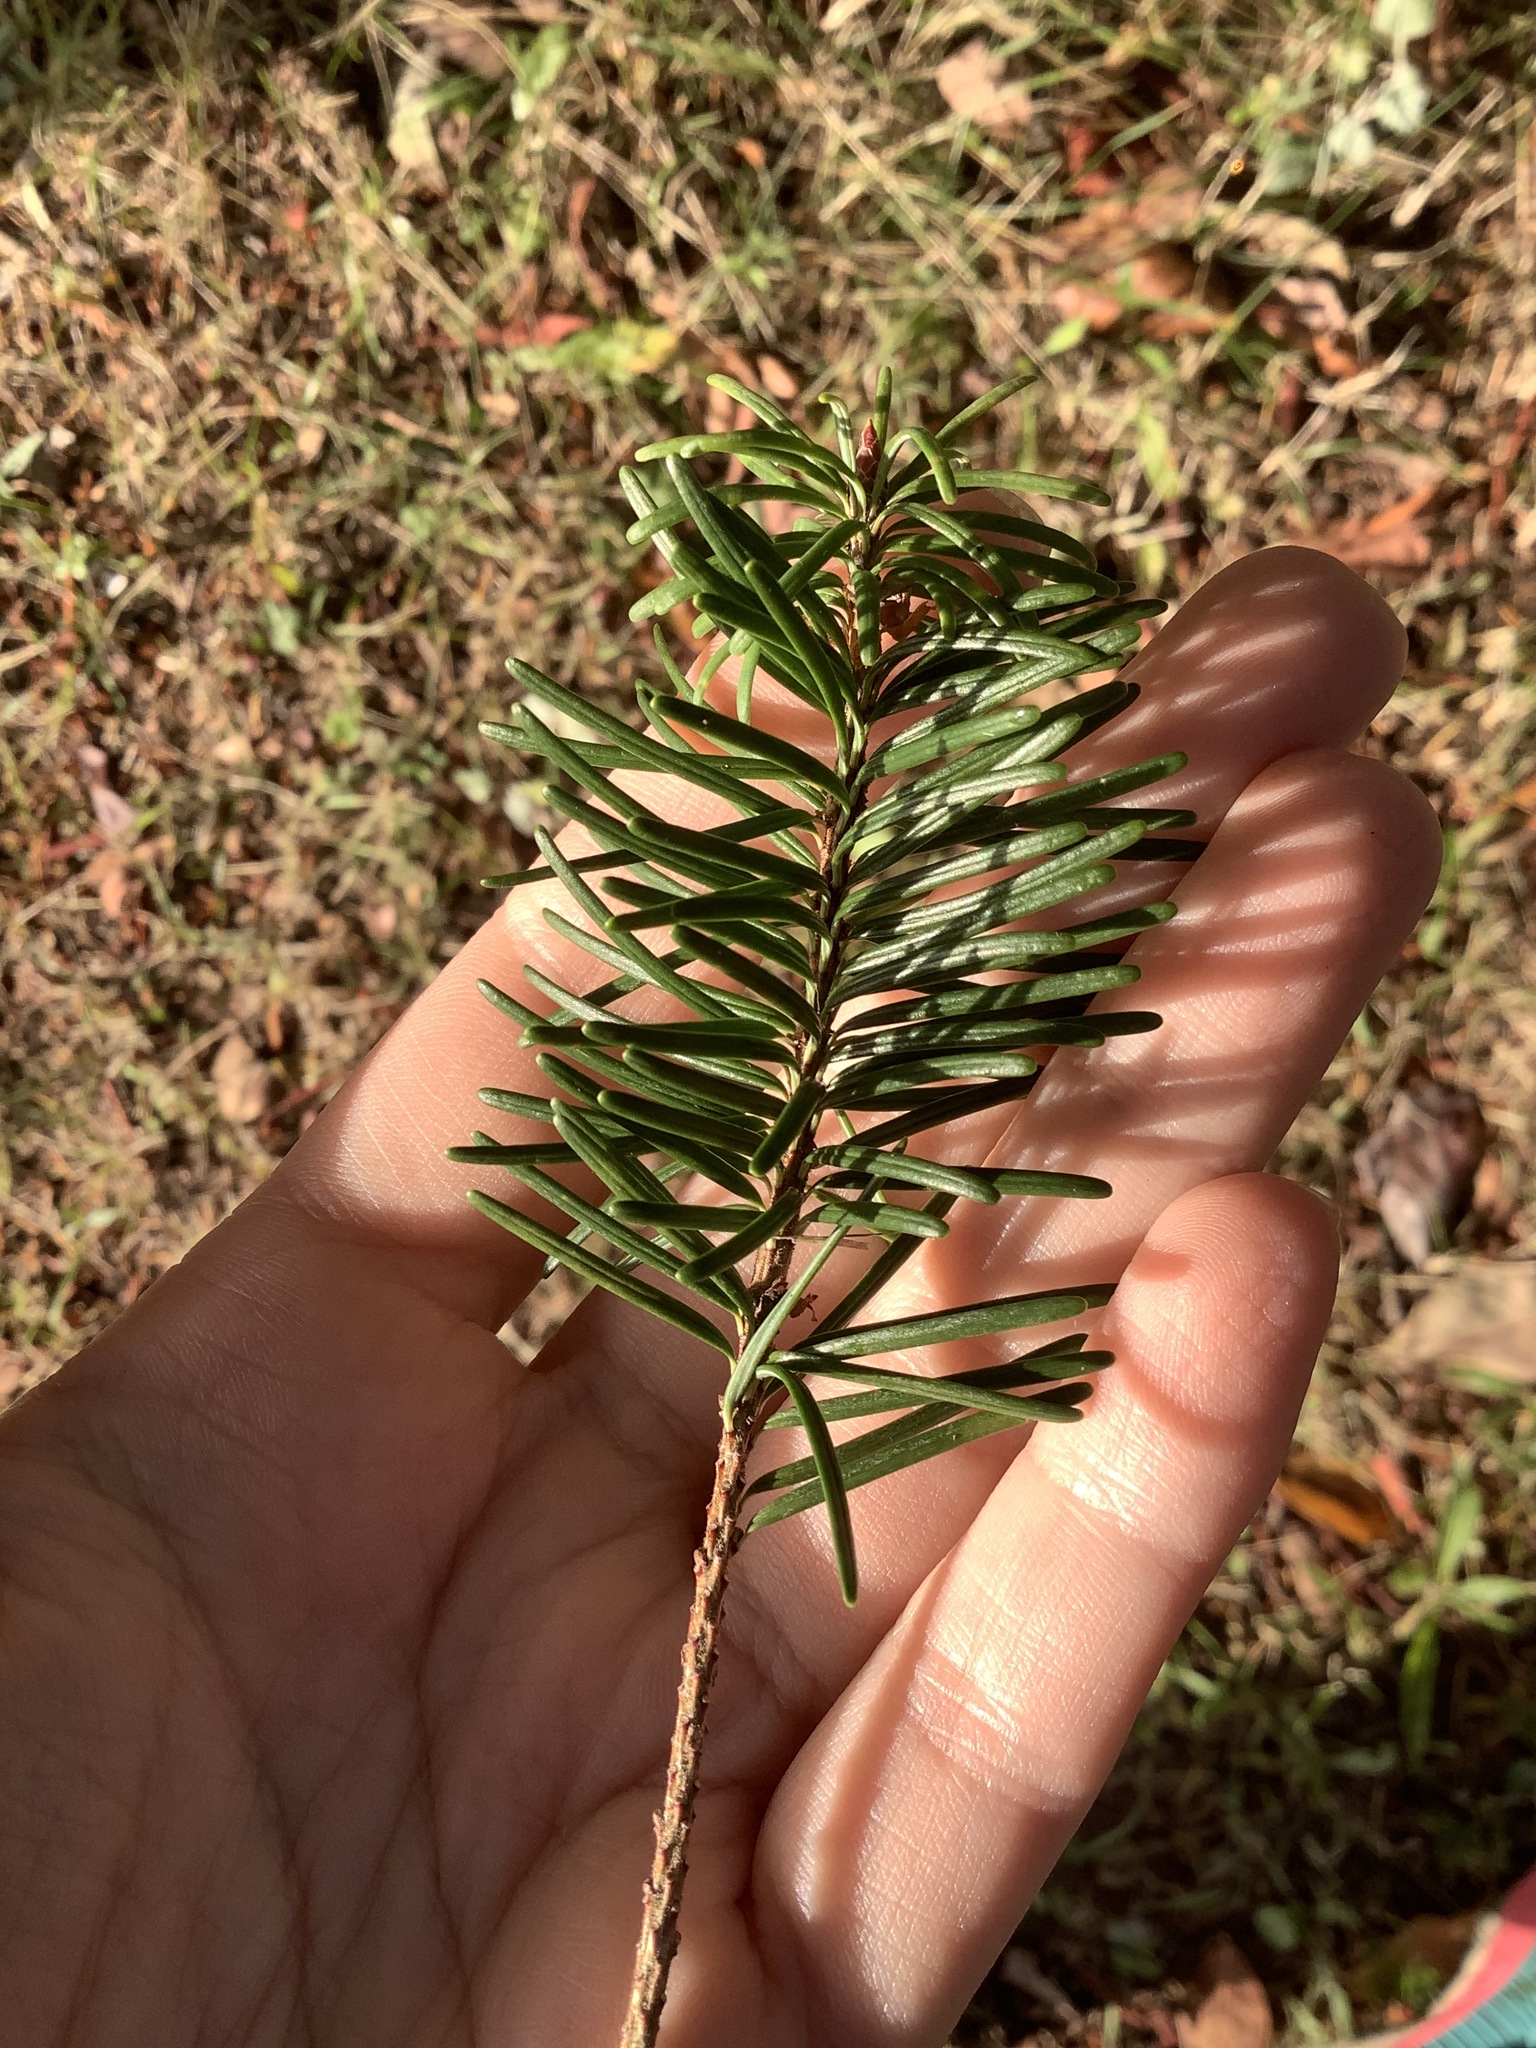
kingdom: Plantae
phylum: Tracheophyta
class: Pinopsida
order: Pinales
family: Pinaceae
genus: Pseudotsuga
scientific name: Pseudotsuga menziesii
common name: Douglas fir
